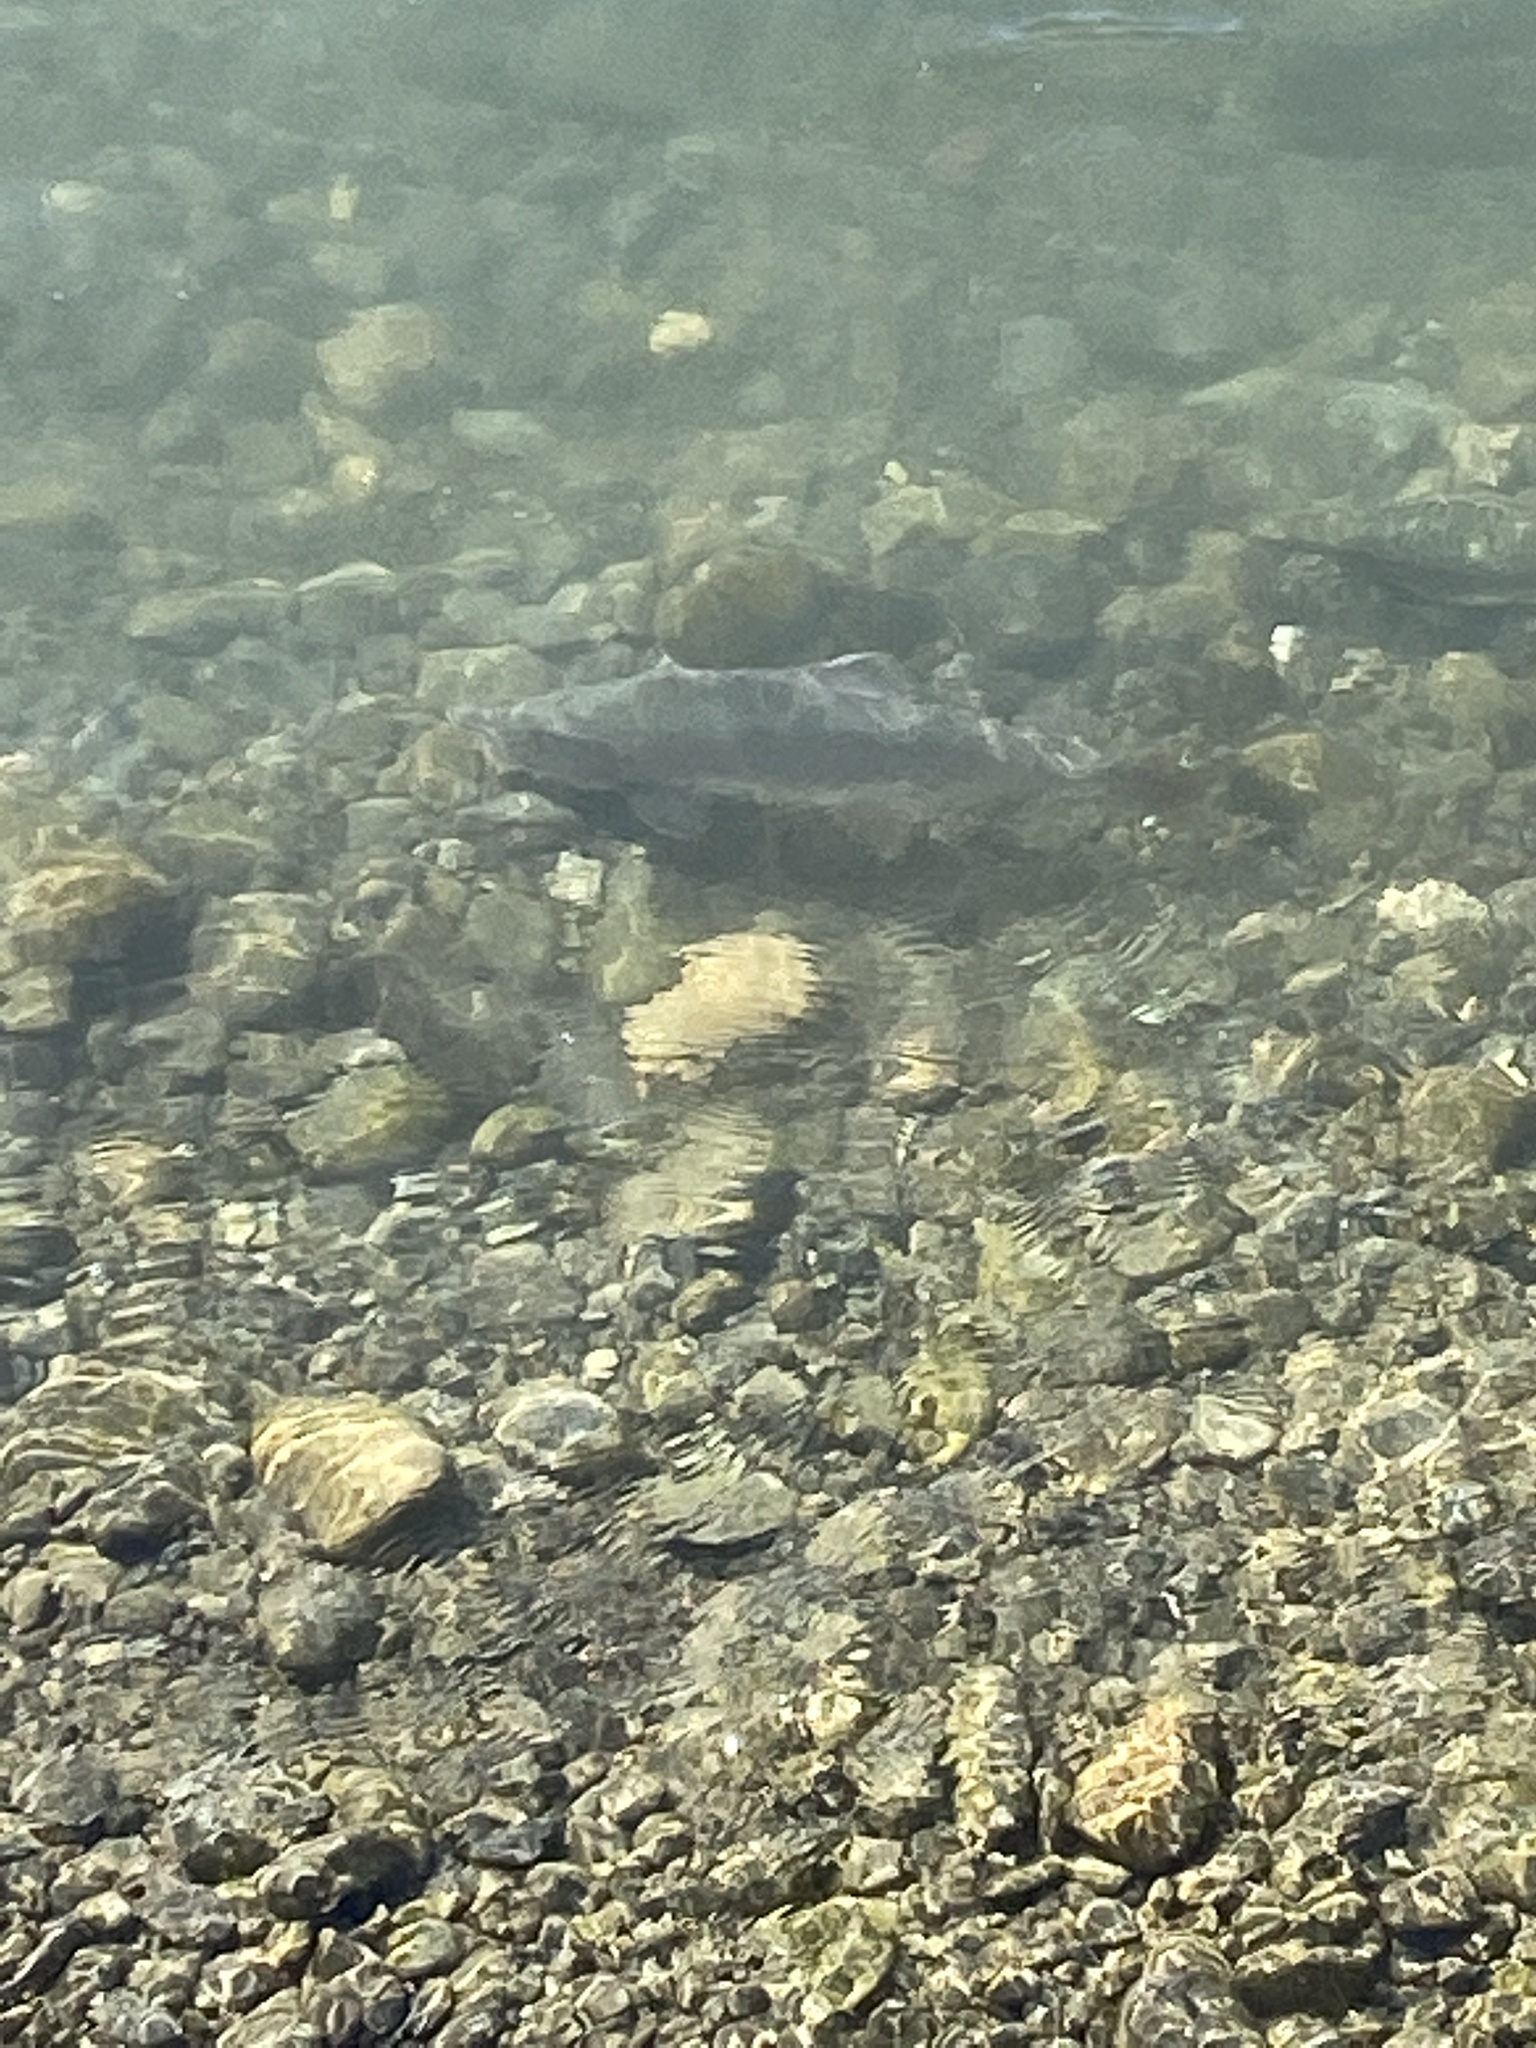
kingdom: Animalia
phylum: Chordata
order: Salmoniformes
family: Salmonidae
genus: Oncorhynchus
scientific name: Oncorhynchus gorbuscha
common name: Humpback salmon
